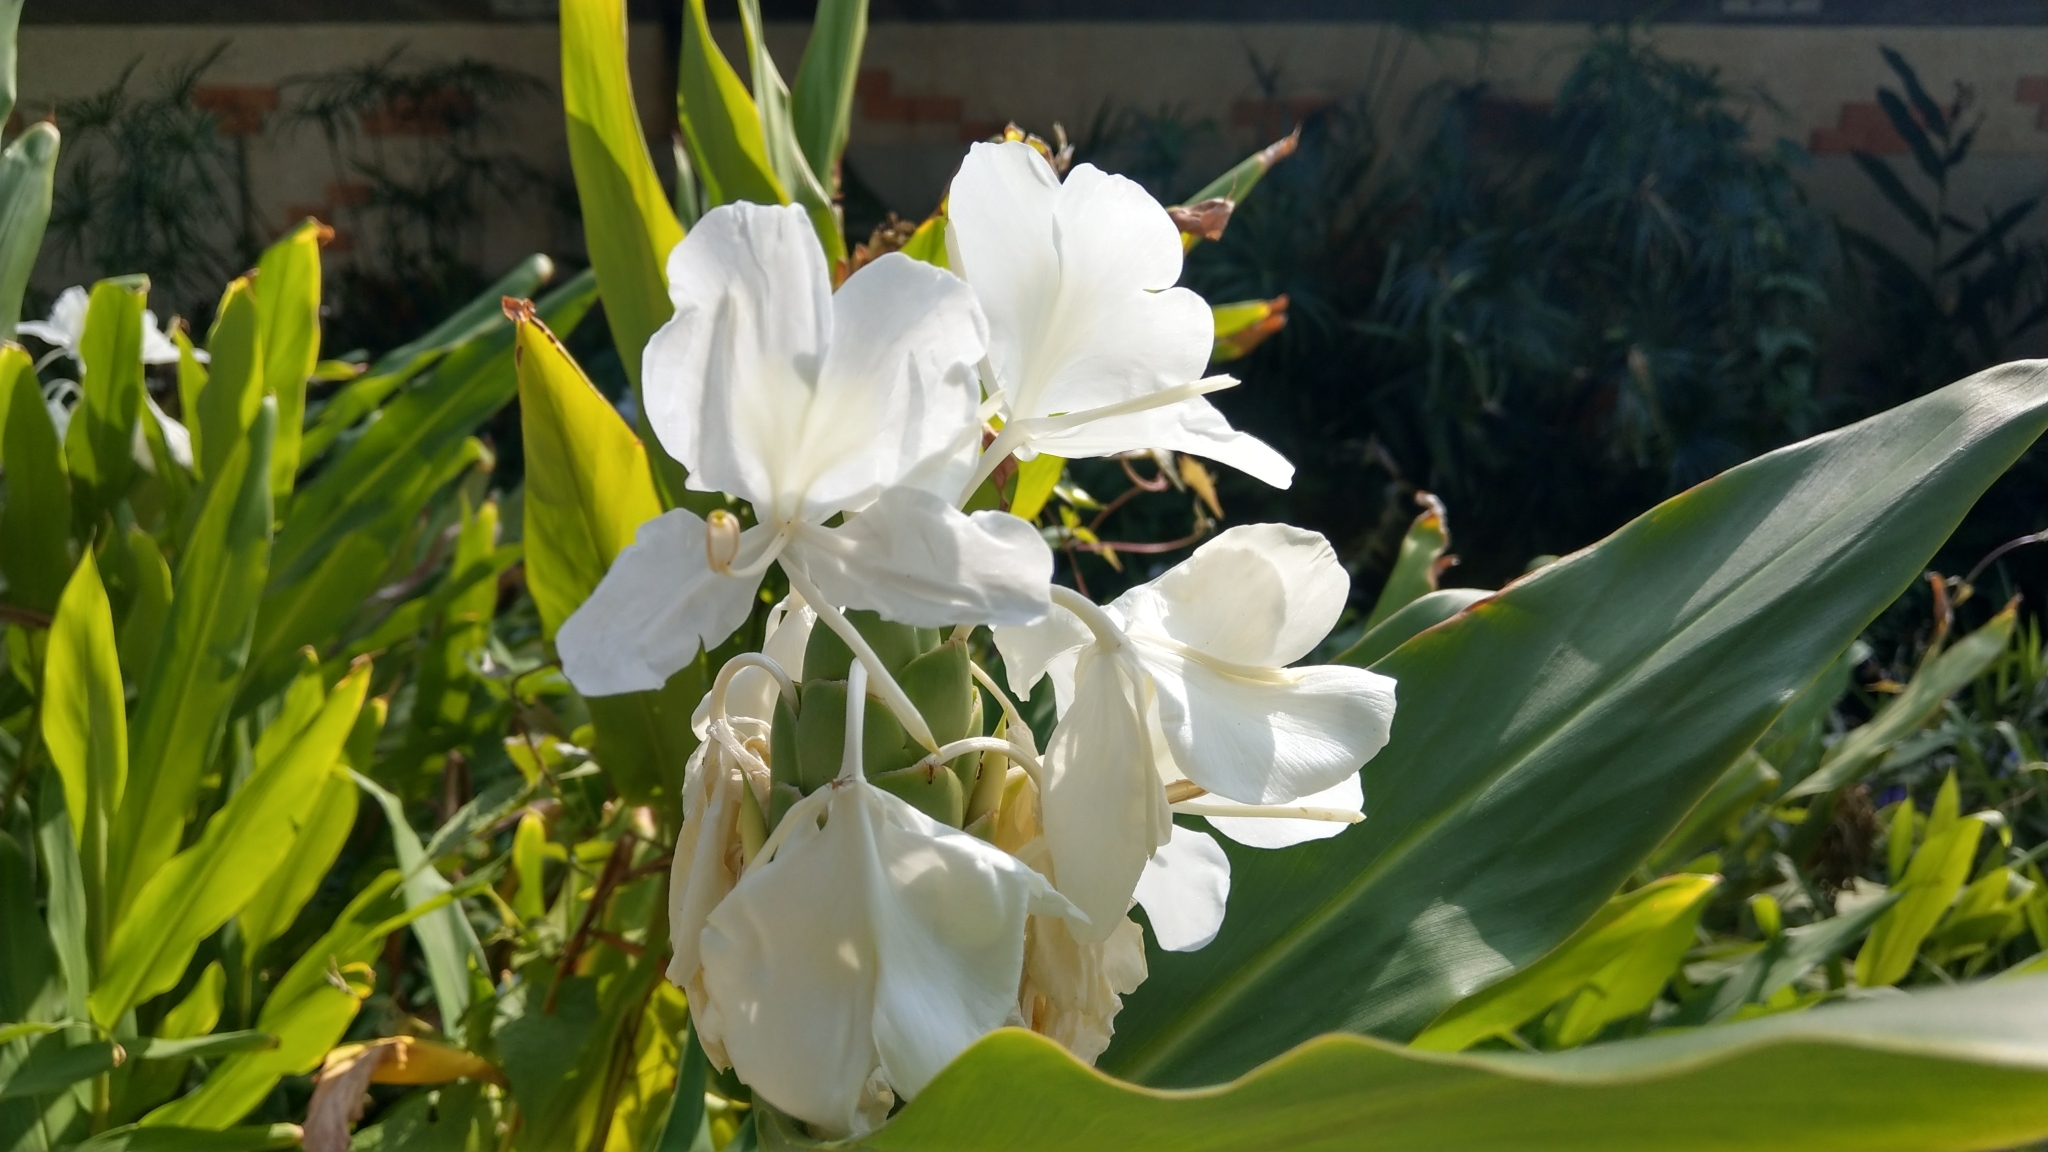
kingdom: Plantae
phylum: Tracheophyta
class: Liliopsida
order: Zingiberales
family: Zingiberaceae
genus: Hedychium
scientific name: Hedychium coronarium
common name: White garland-lily
